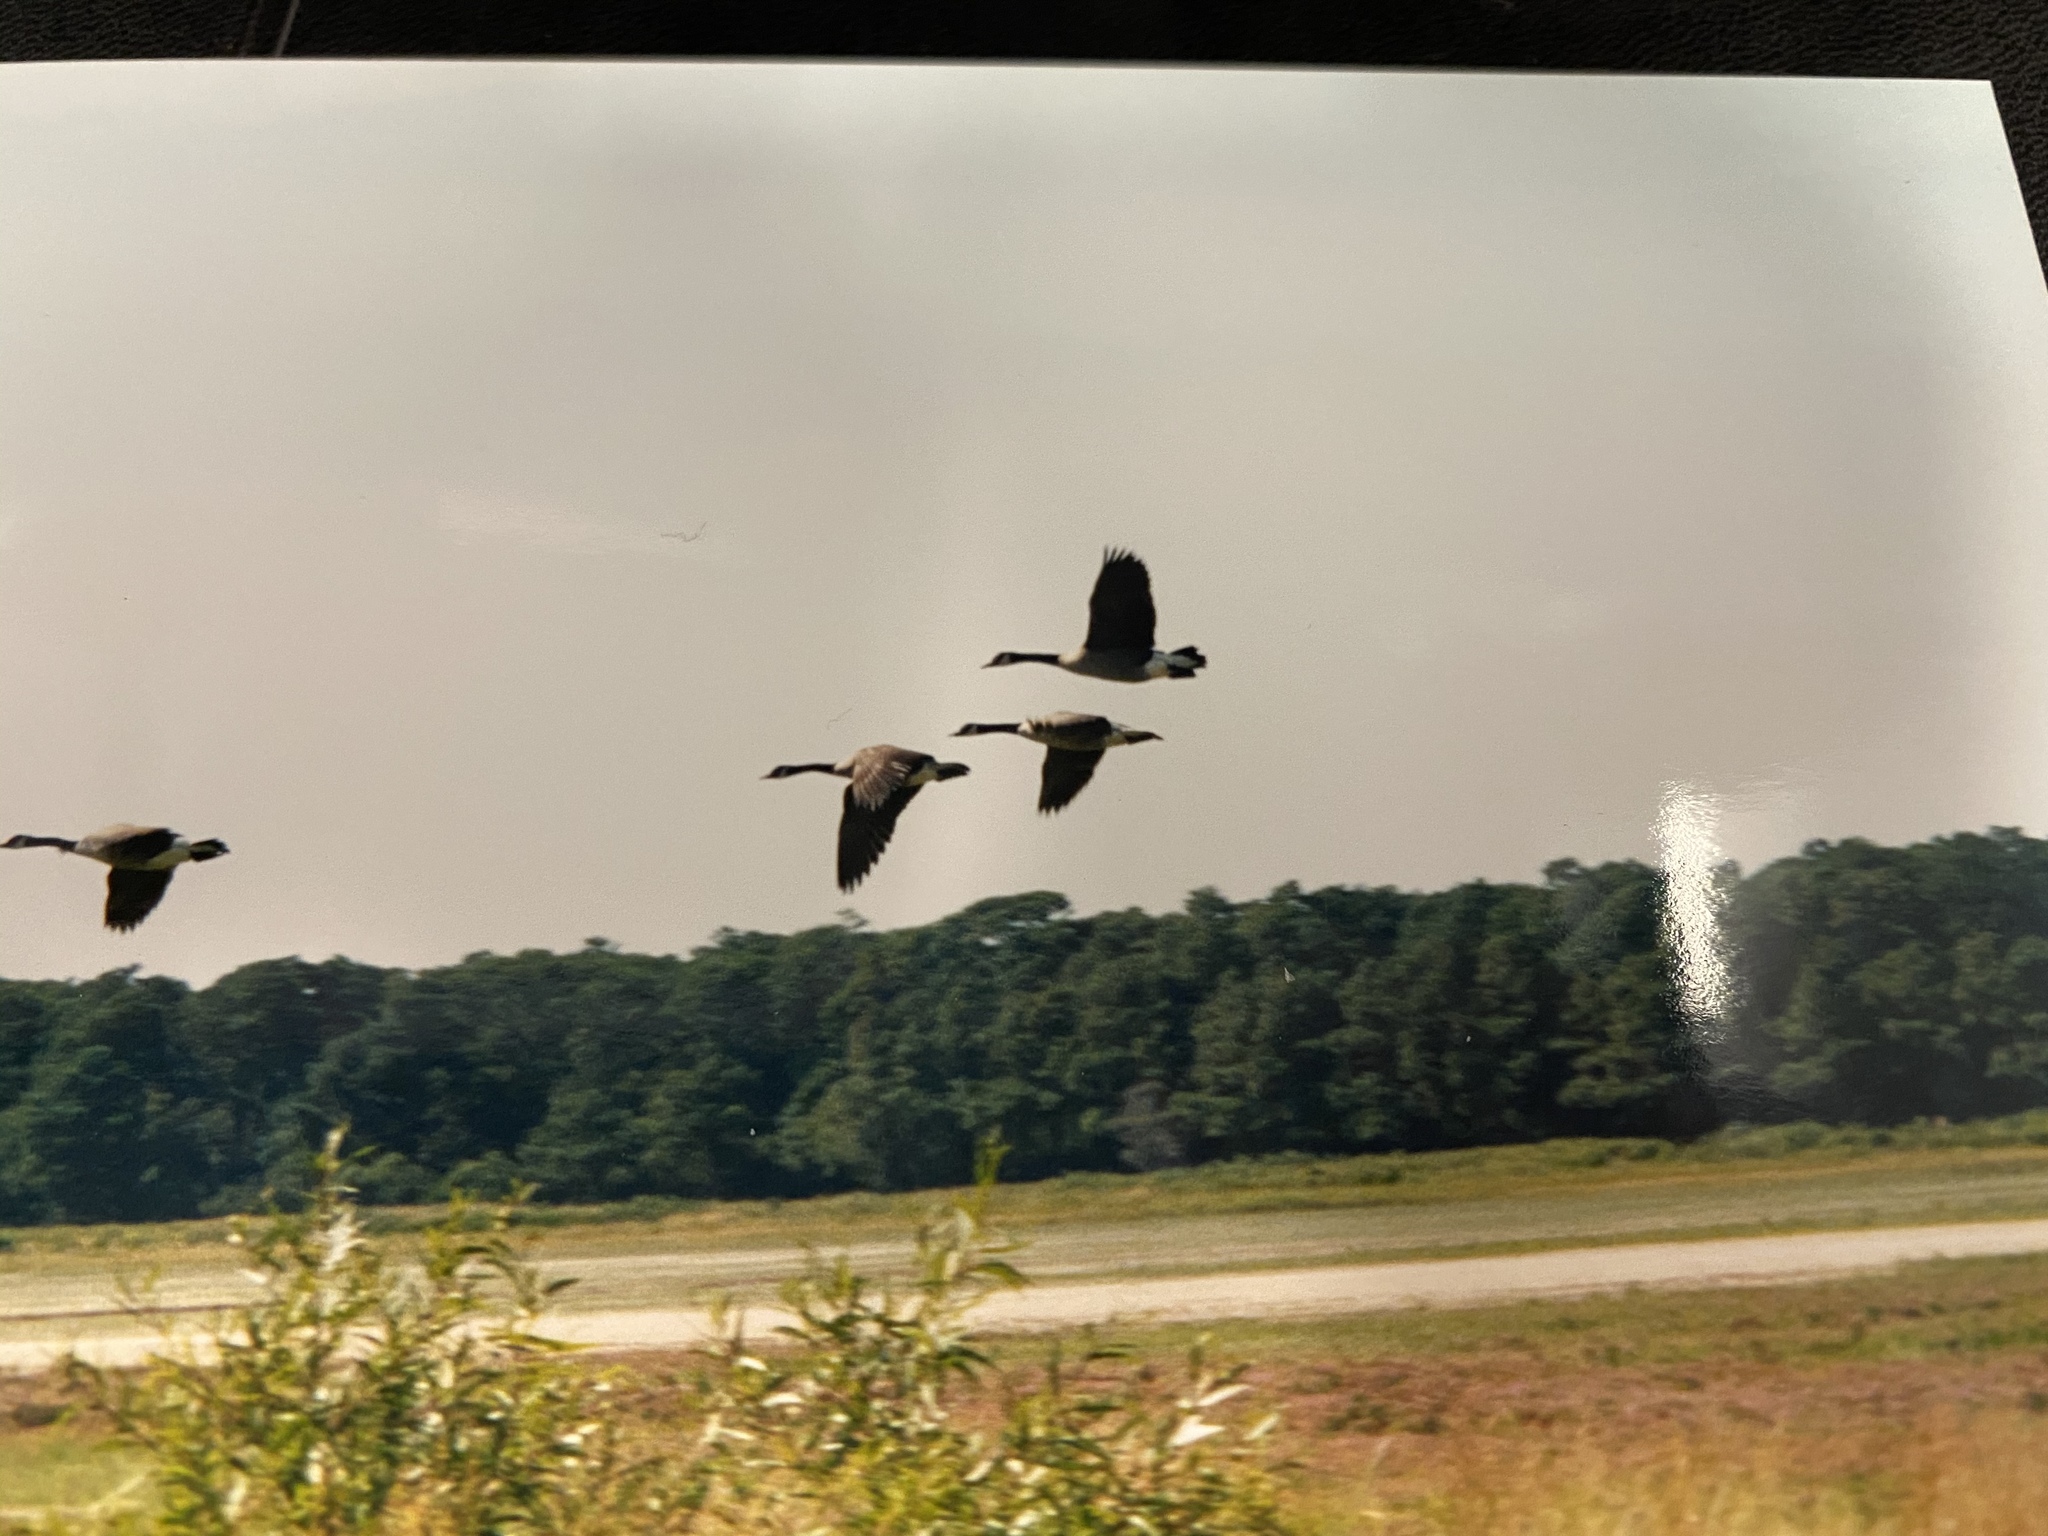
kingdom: Animalia
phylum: Chordata
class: Aves
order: Anseriformes
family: Anatidae
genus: Branta
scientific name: Branta canadensis
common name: Canada goose
